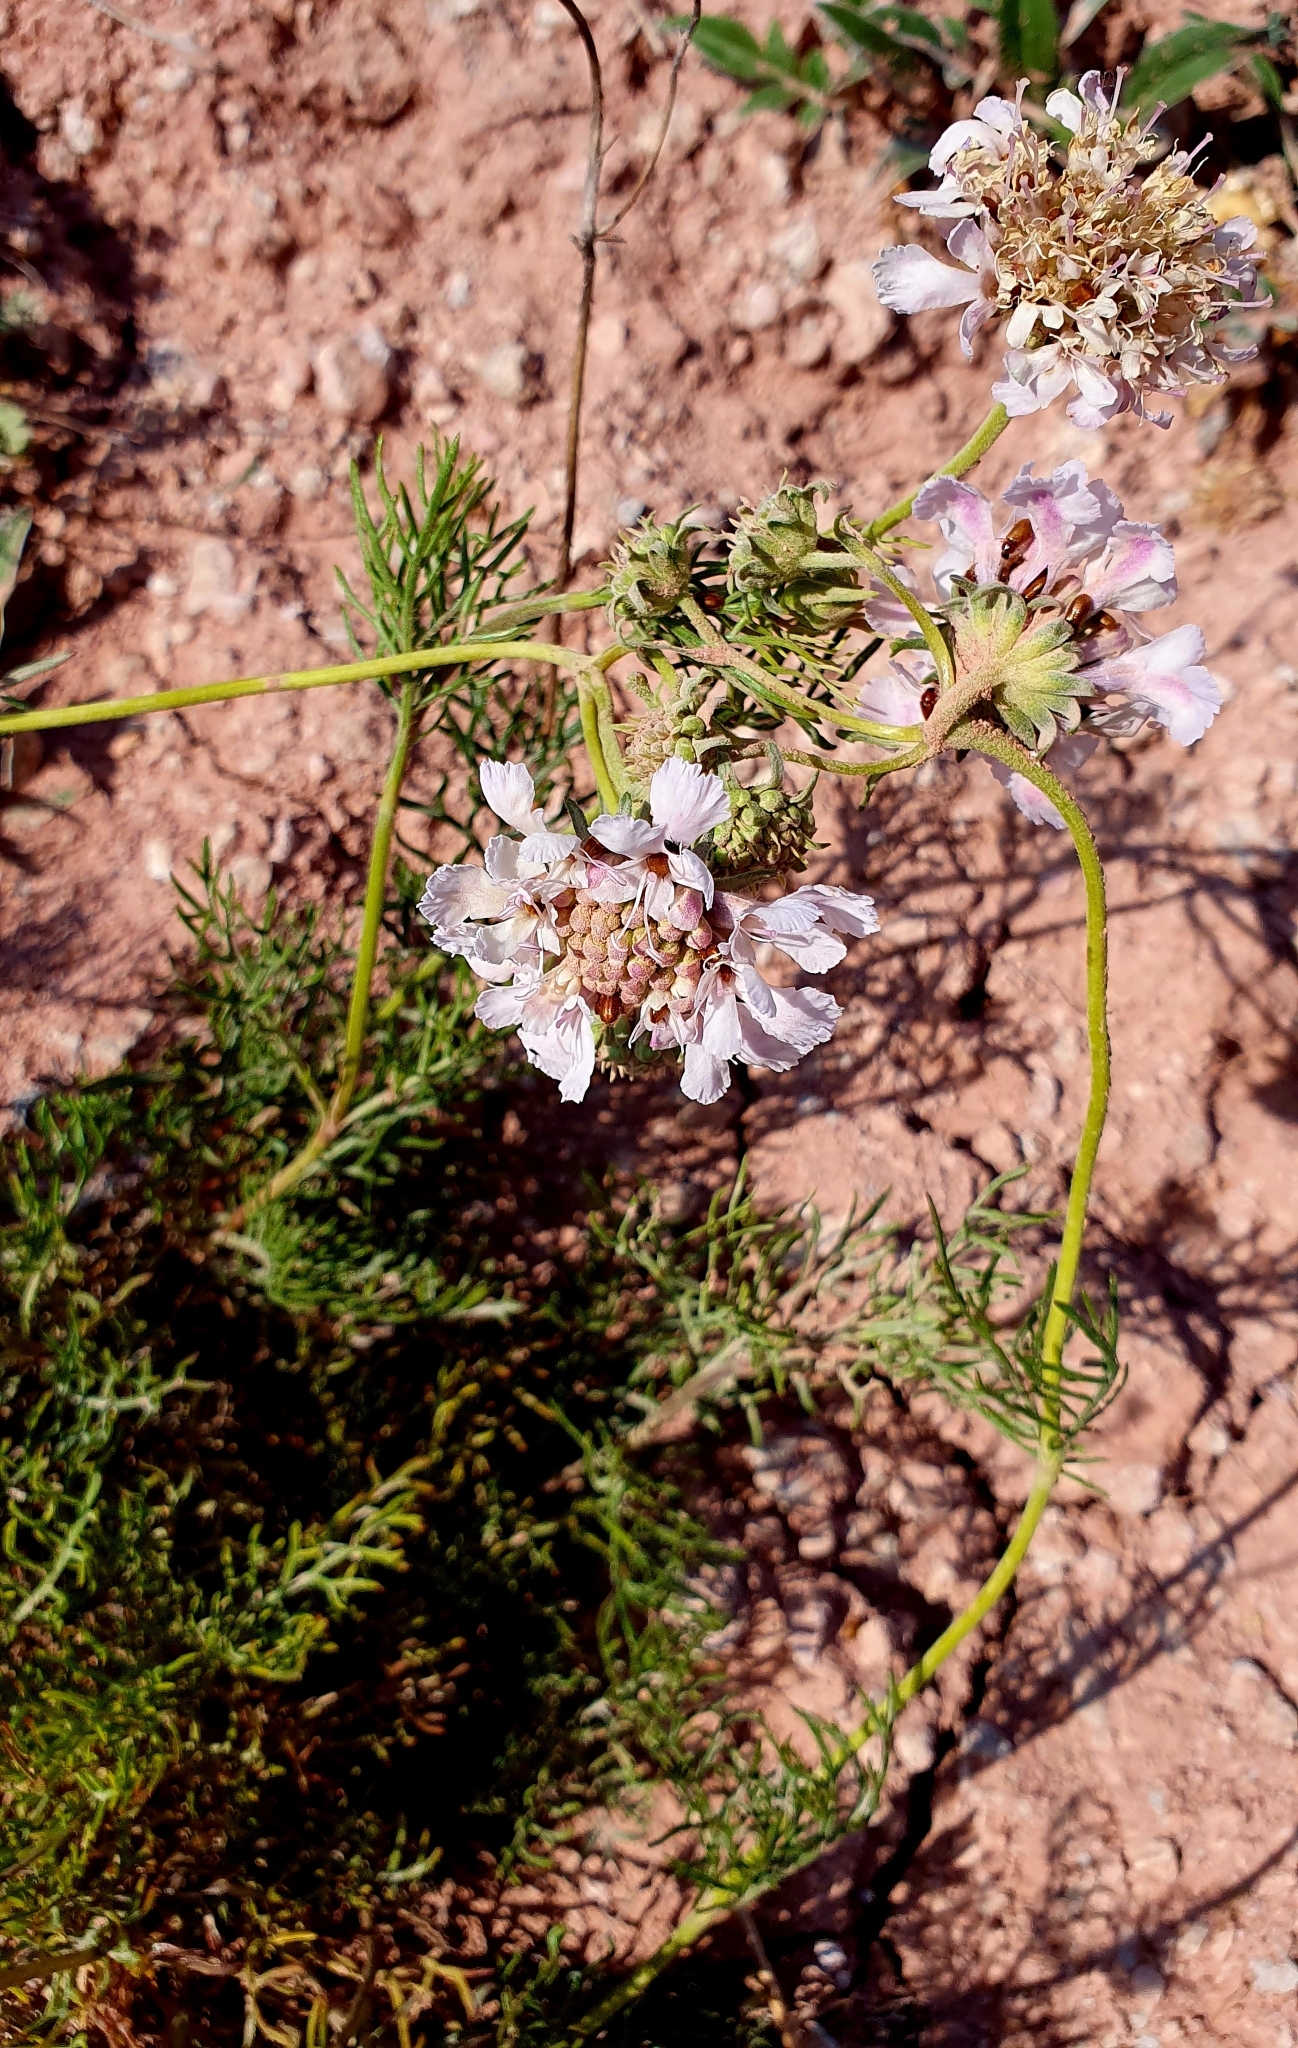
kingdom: Plantae
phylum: Tracheophyta
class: Magnoliopsida
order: Dipsacales
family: Caprifoliaceae
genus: Lomelosia
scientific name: Lomelosia isetensis
